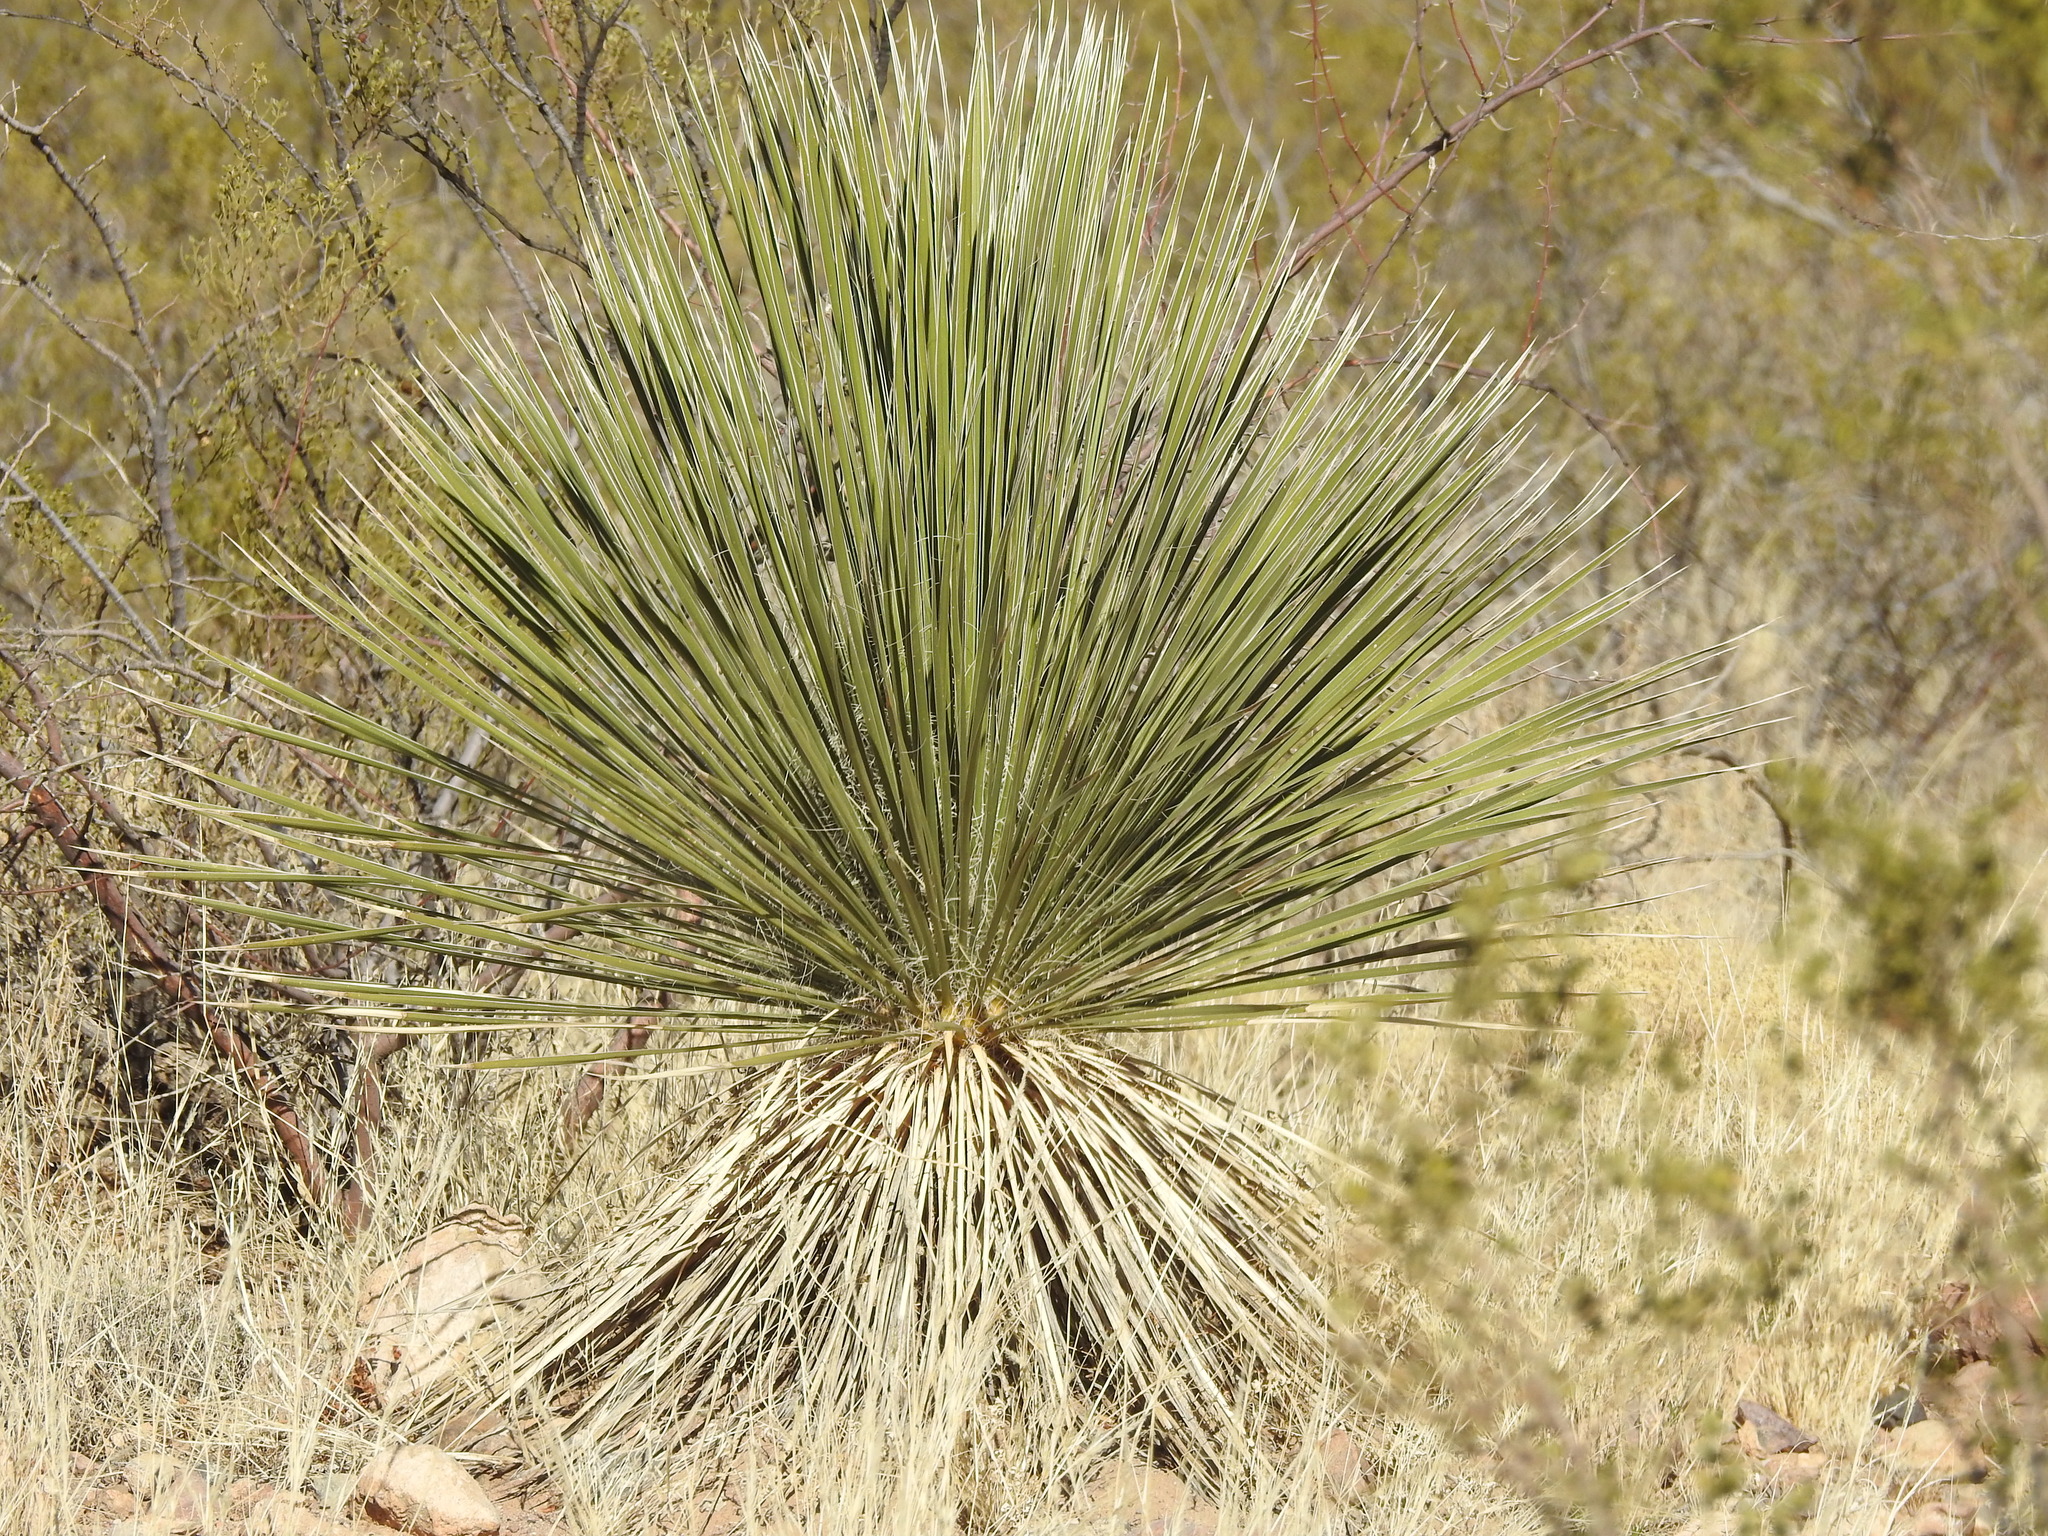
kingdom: Plantae
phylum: Tracheophyta
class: Liliopsida
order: Asparagales
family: Asparagaceae
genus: Yucca
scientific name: Yucca elata
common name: Palmella
